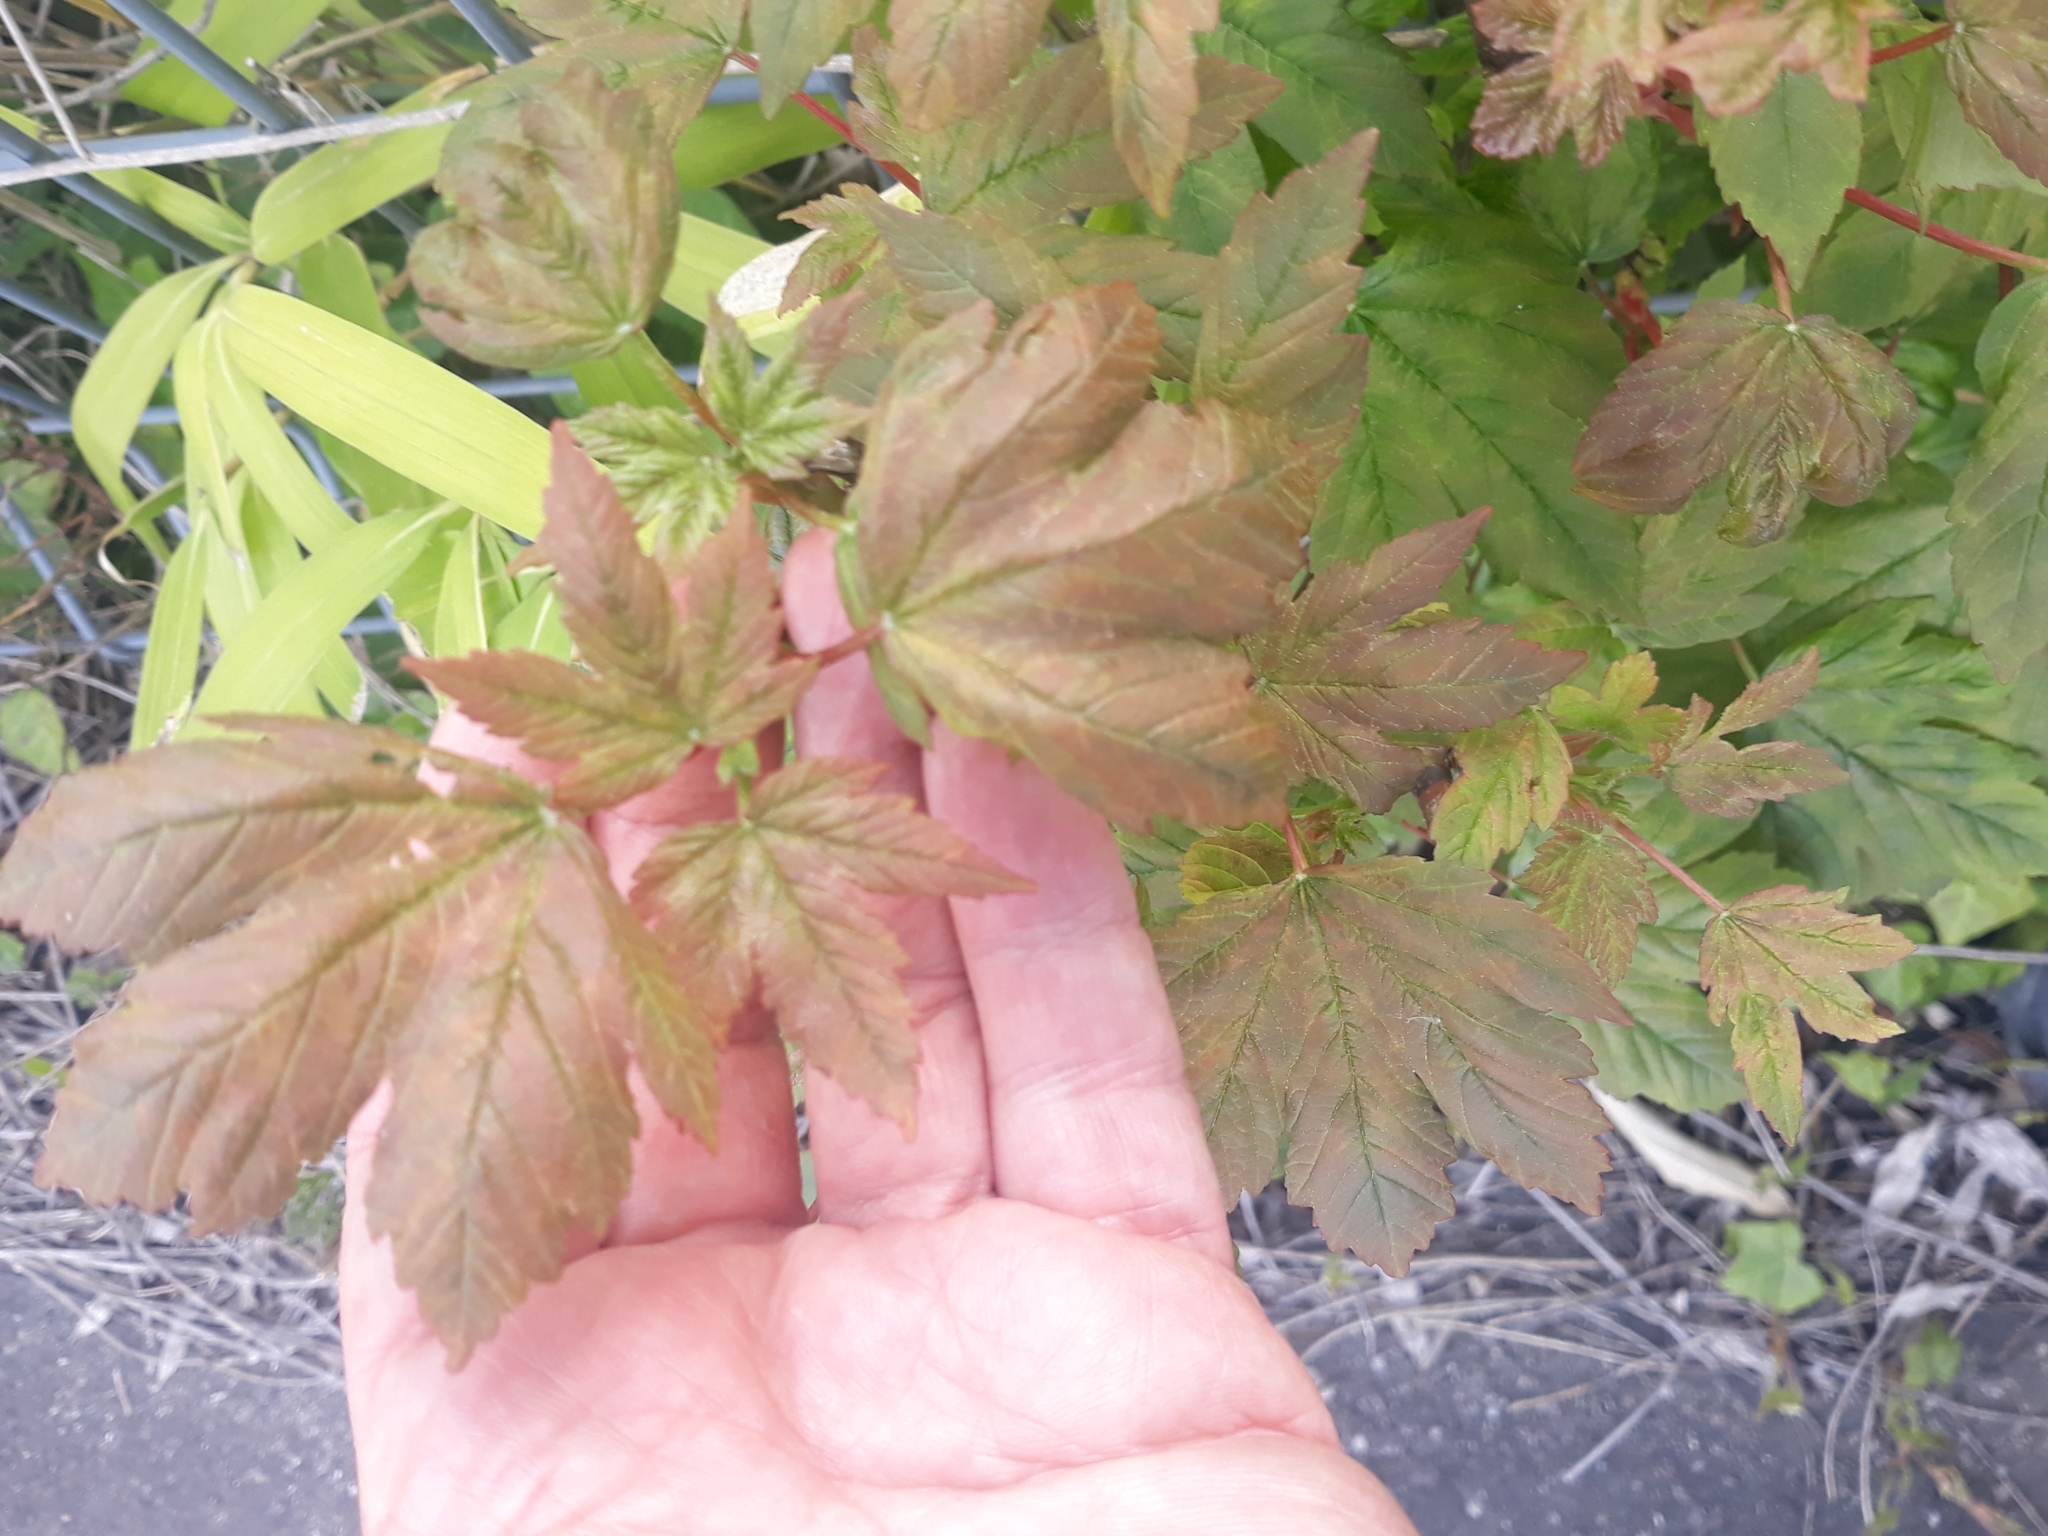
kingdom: Plantae
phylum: Tracheophyta
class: Magnoliopsida
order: Sapindales
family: Sapindaceae
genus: Acer
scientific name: Acer pseudoplatanus
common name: Sycamore
